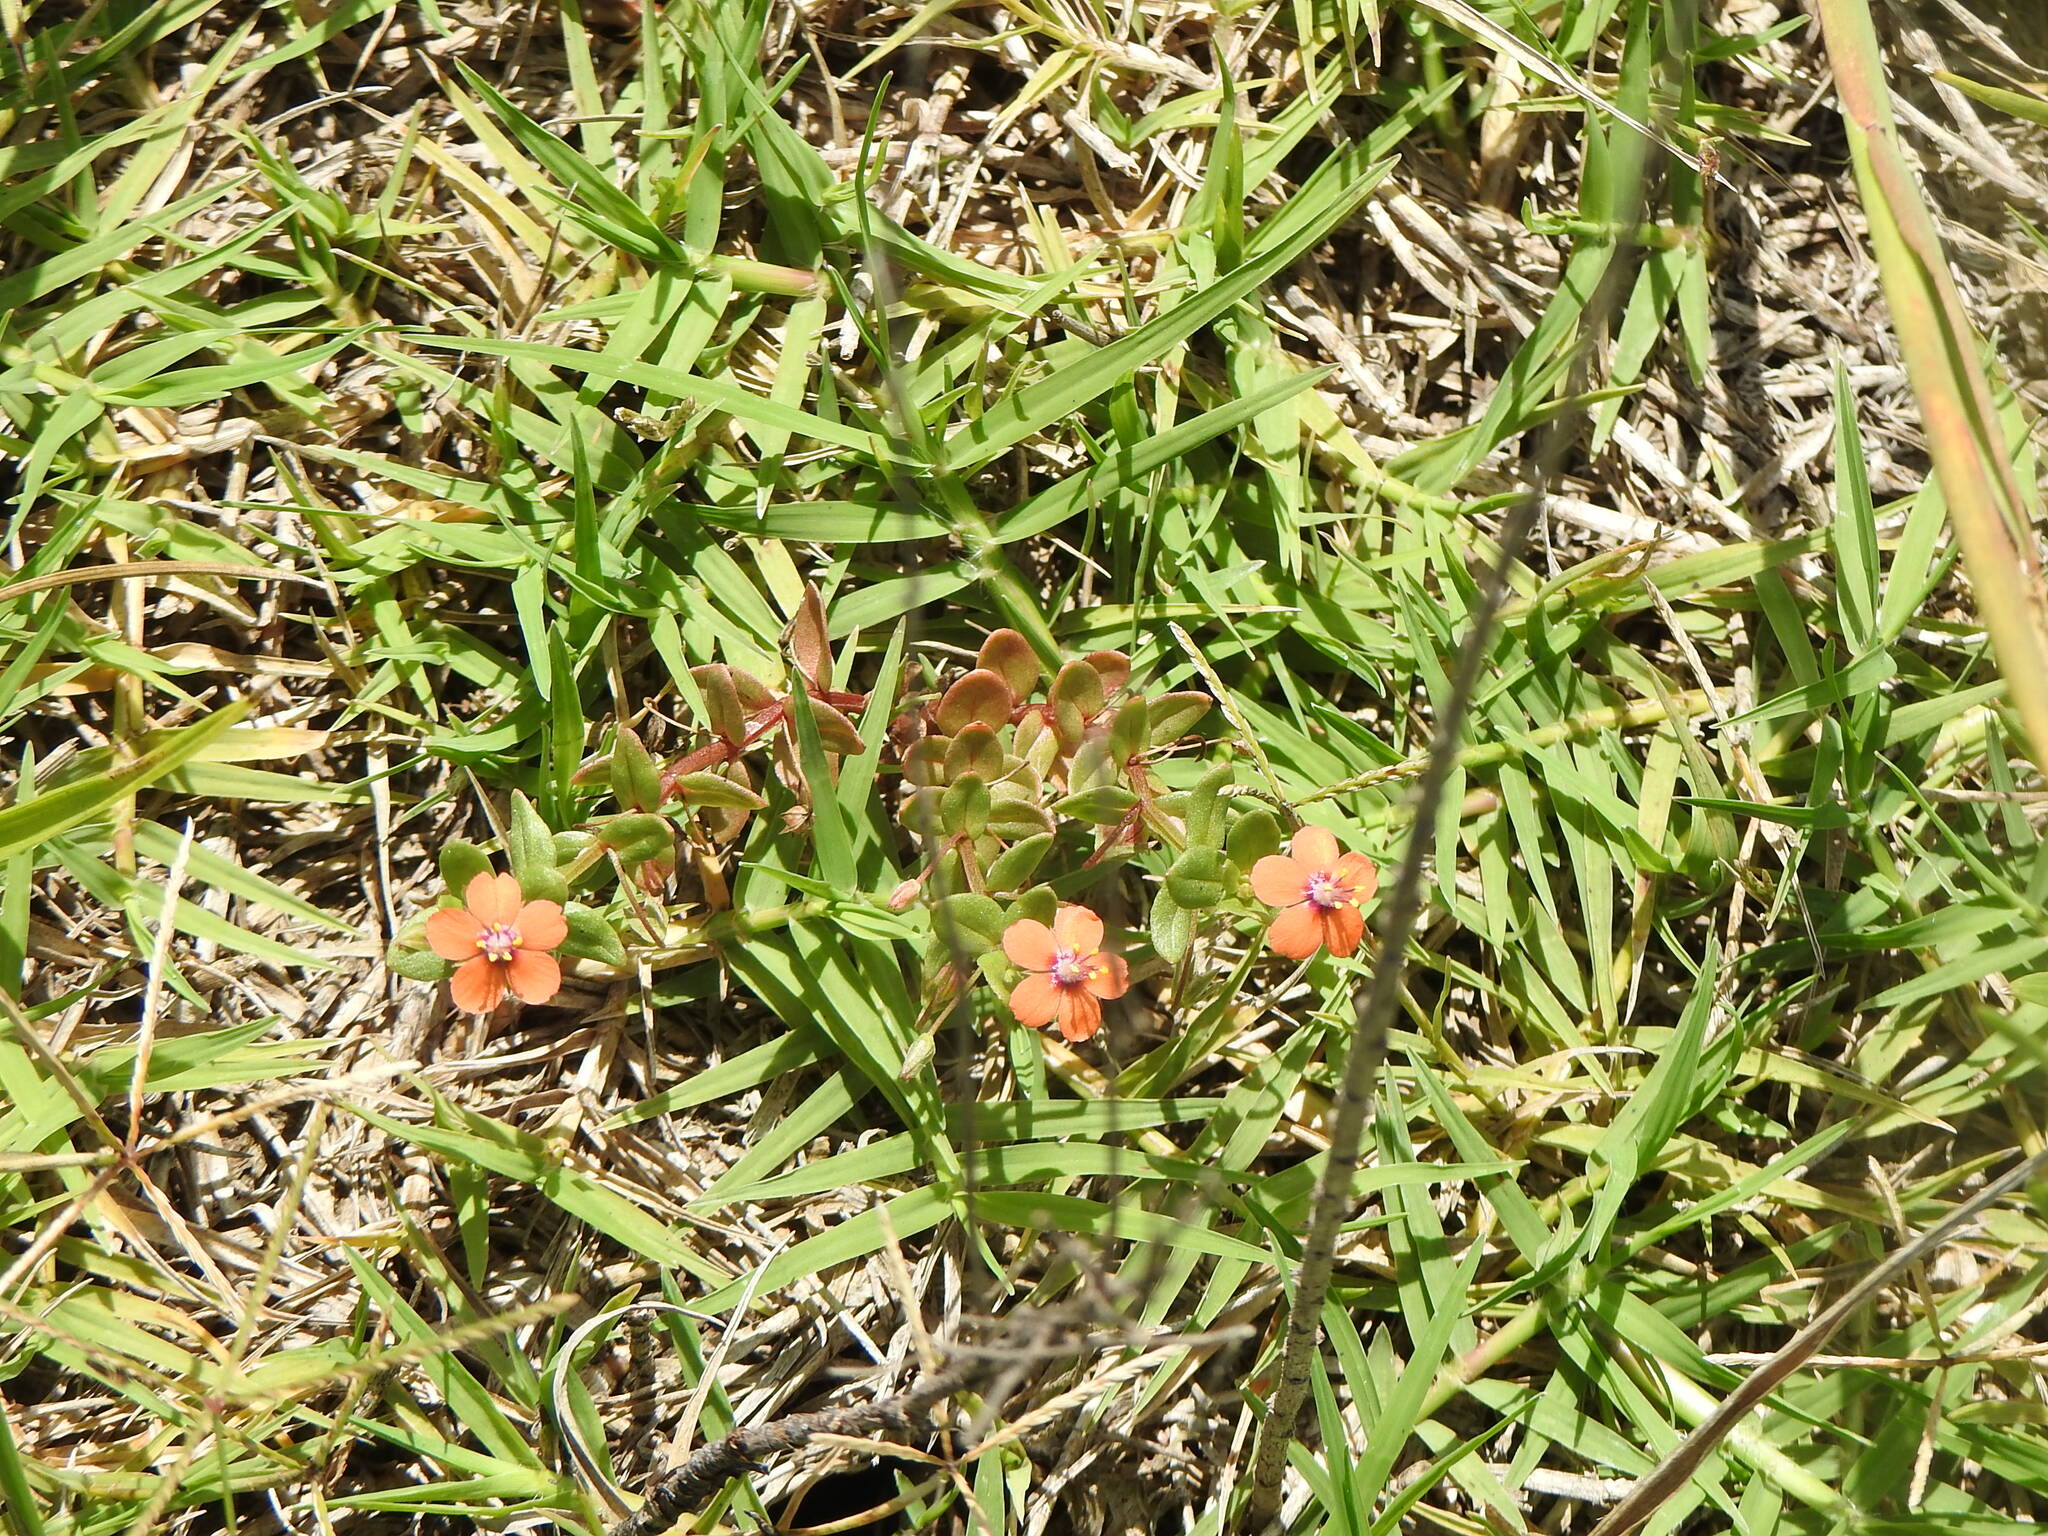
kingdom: Plantae
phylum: Tracheophyta
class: Magnoliopsida
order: Ericales
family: Primulaceae
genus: Lysimachia
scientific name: Lysimachia arvensis
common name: Scarlet pimpernel
